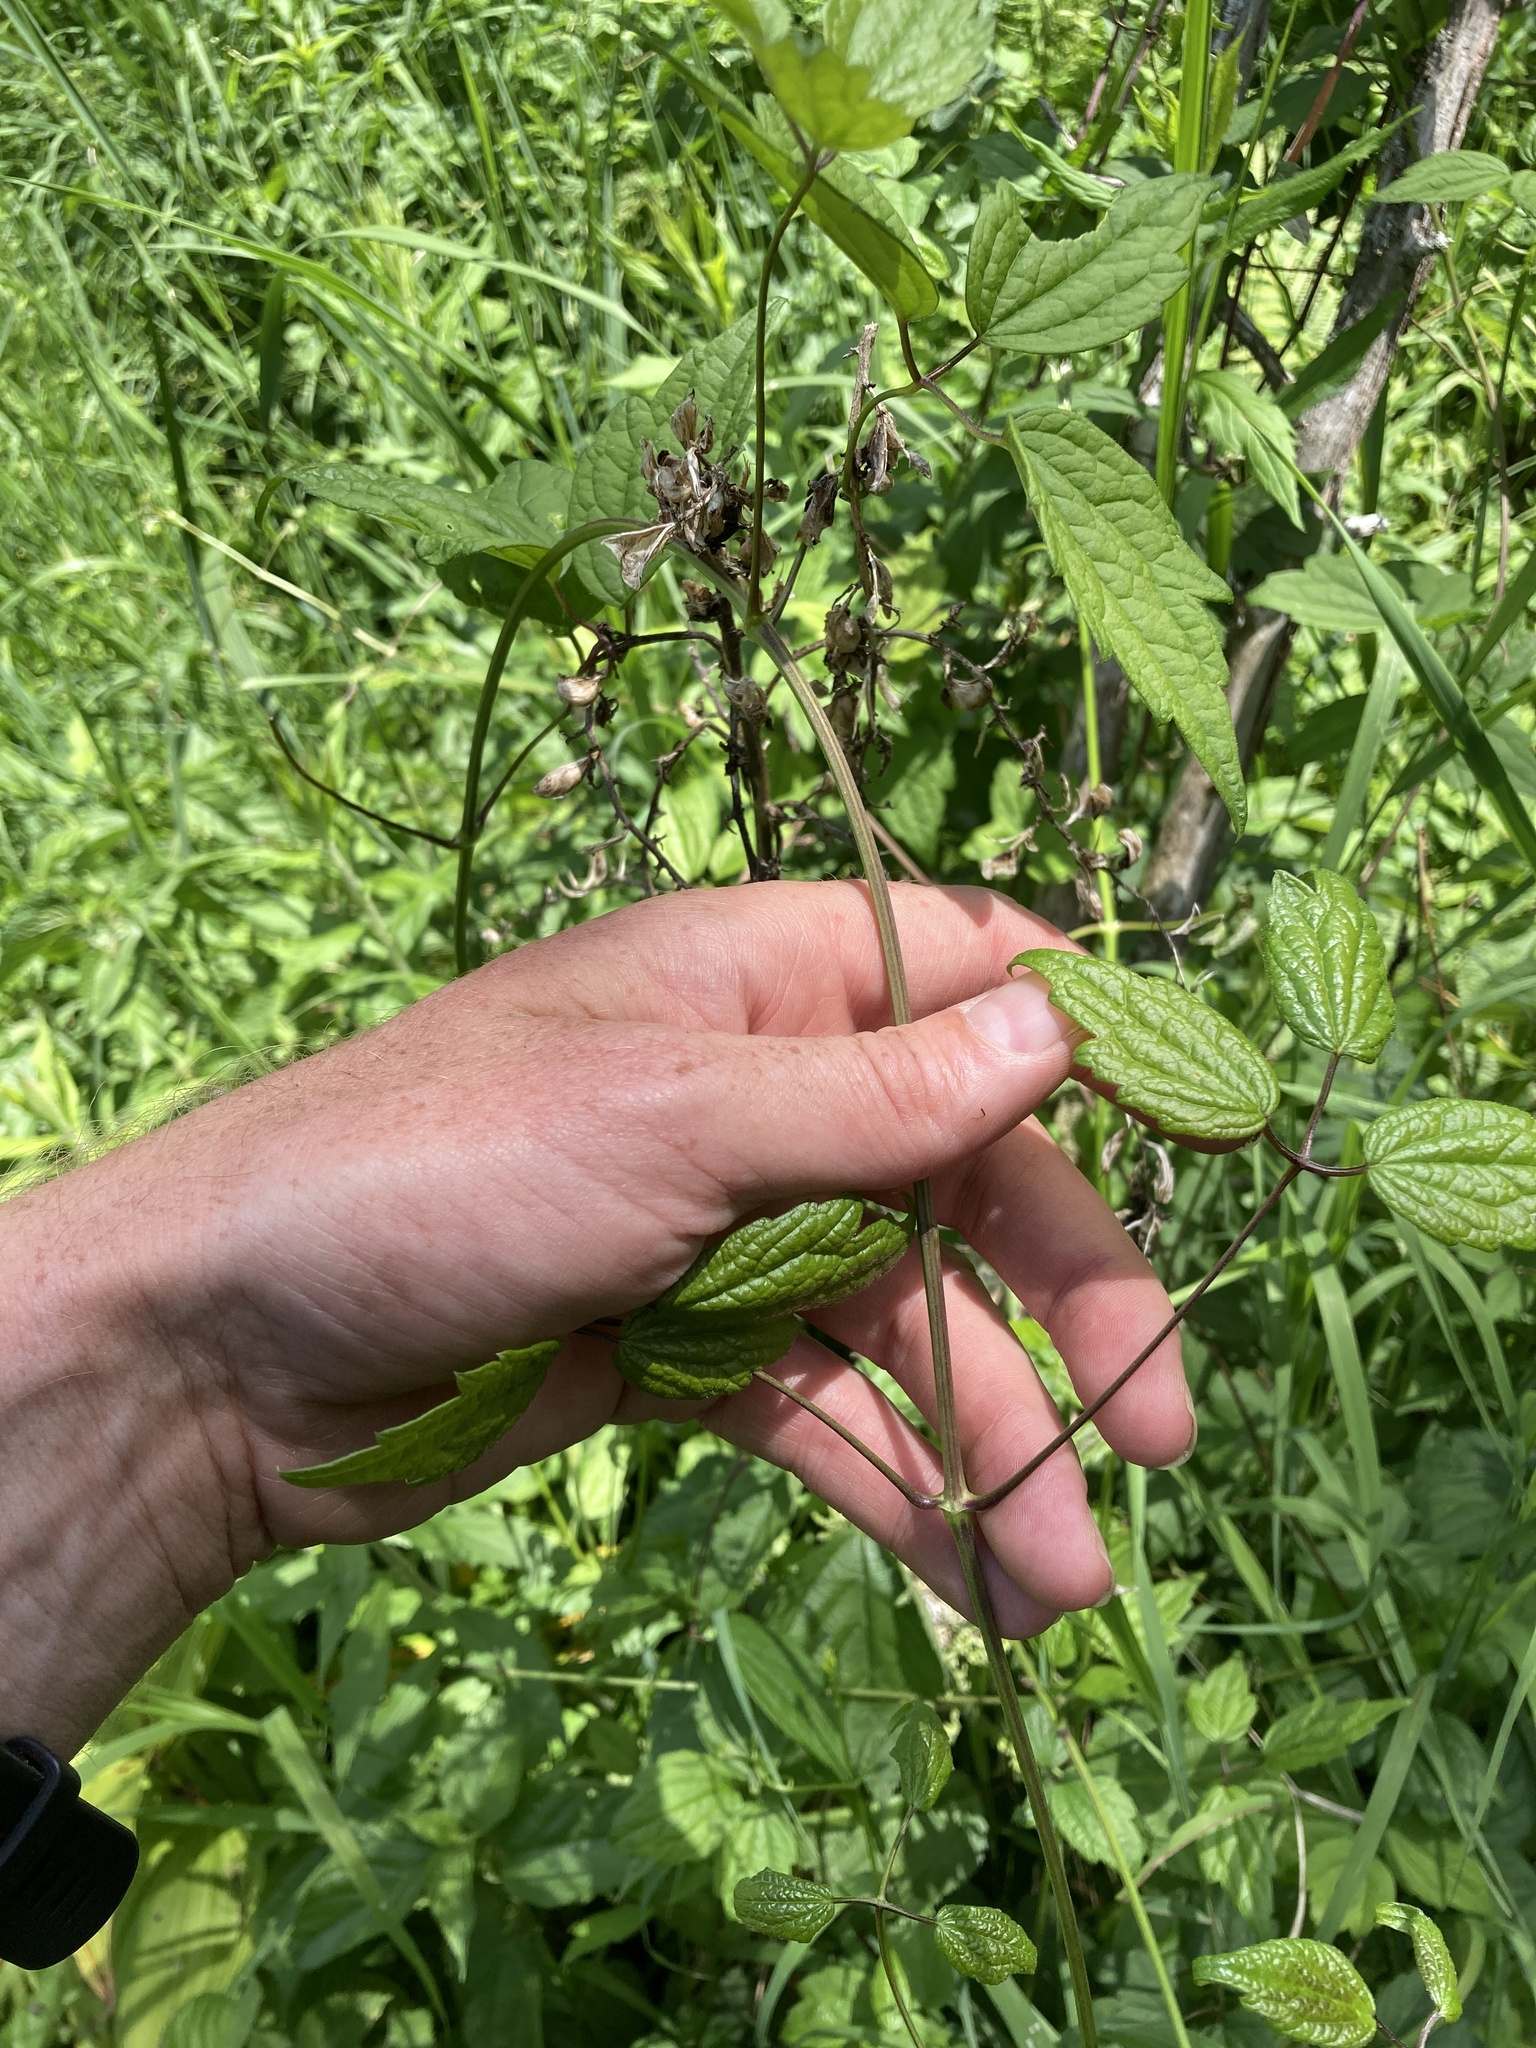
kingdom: Plantae
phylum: Tracheophyta
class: Magnoliopsida
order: Ranunculales
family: Ranunculaceae
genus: Clematis
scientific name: Clematis virginiana
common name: Virgin's-bower
